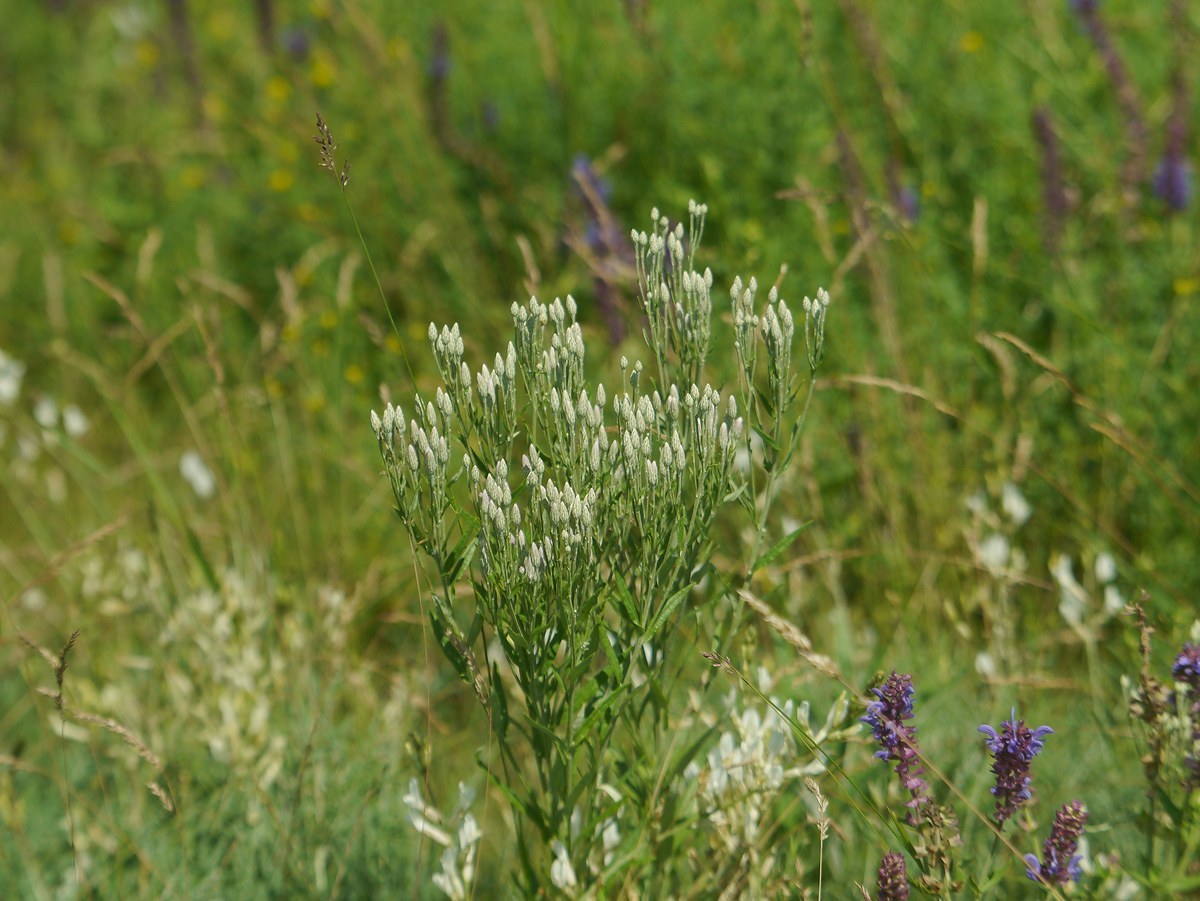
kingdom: Plantae
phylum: Tracheophyta
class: Magnoliopsida
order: Asterales
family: Asteraceae
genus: Jurinea
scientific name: Jurinea multiflora
